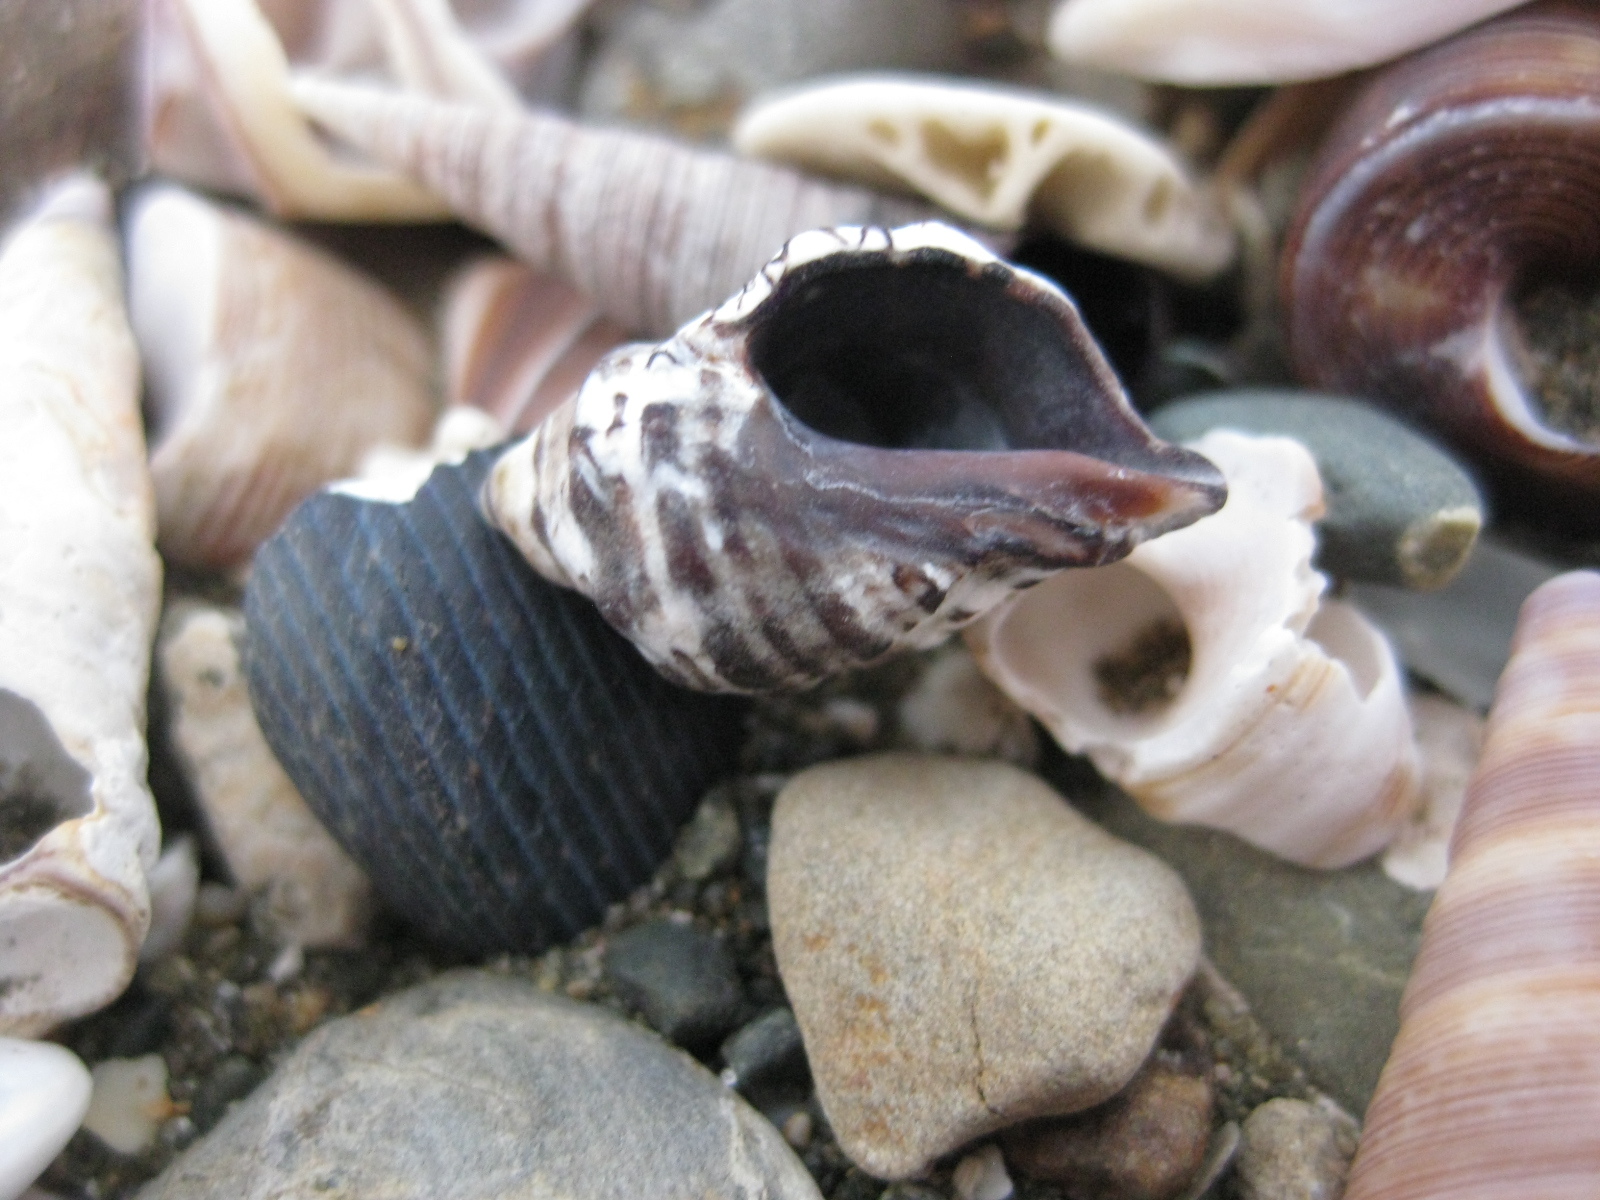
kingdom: Animalia
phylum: Mollusca
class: Gastropoda
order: Neogastropoda
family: Muricidae
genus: Haustrum
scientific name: Haustrum scobina
